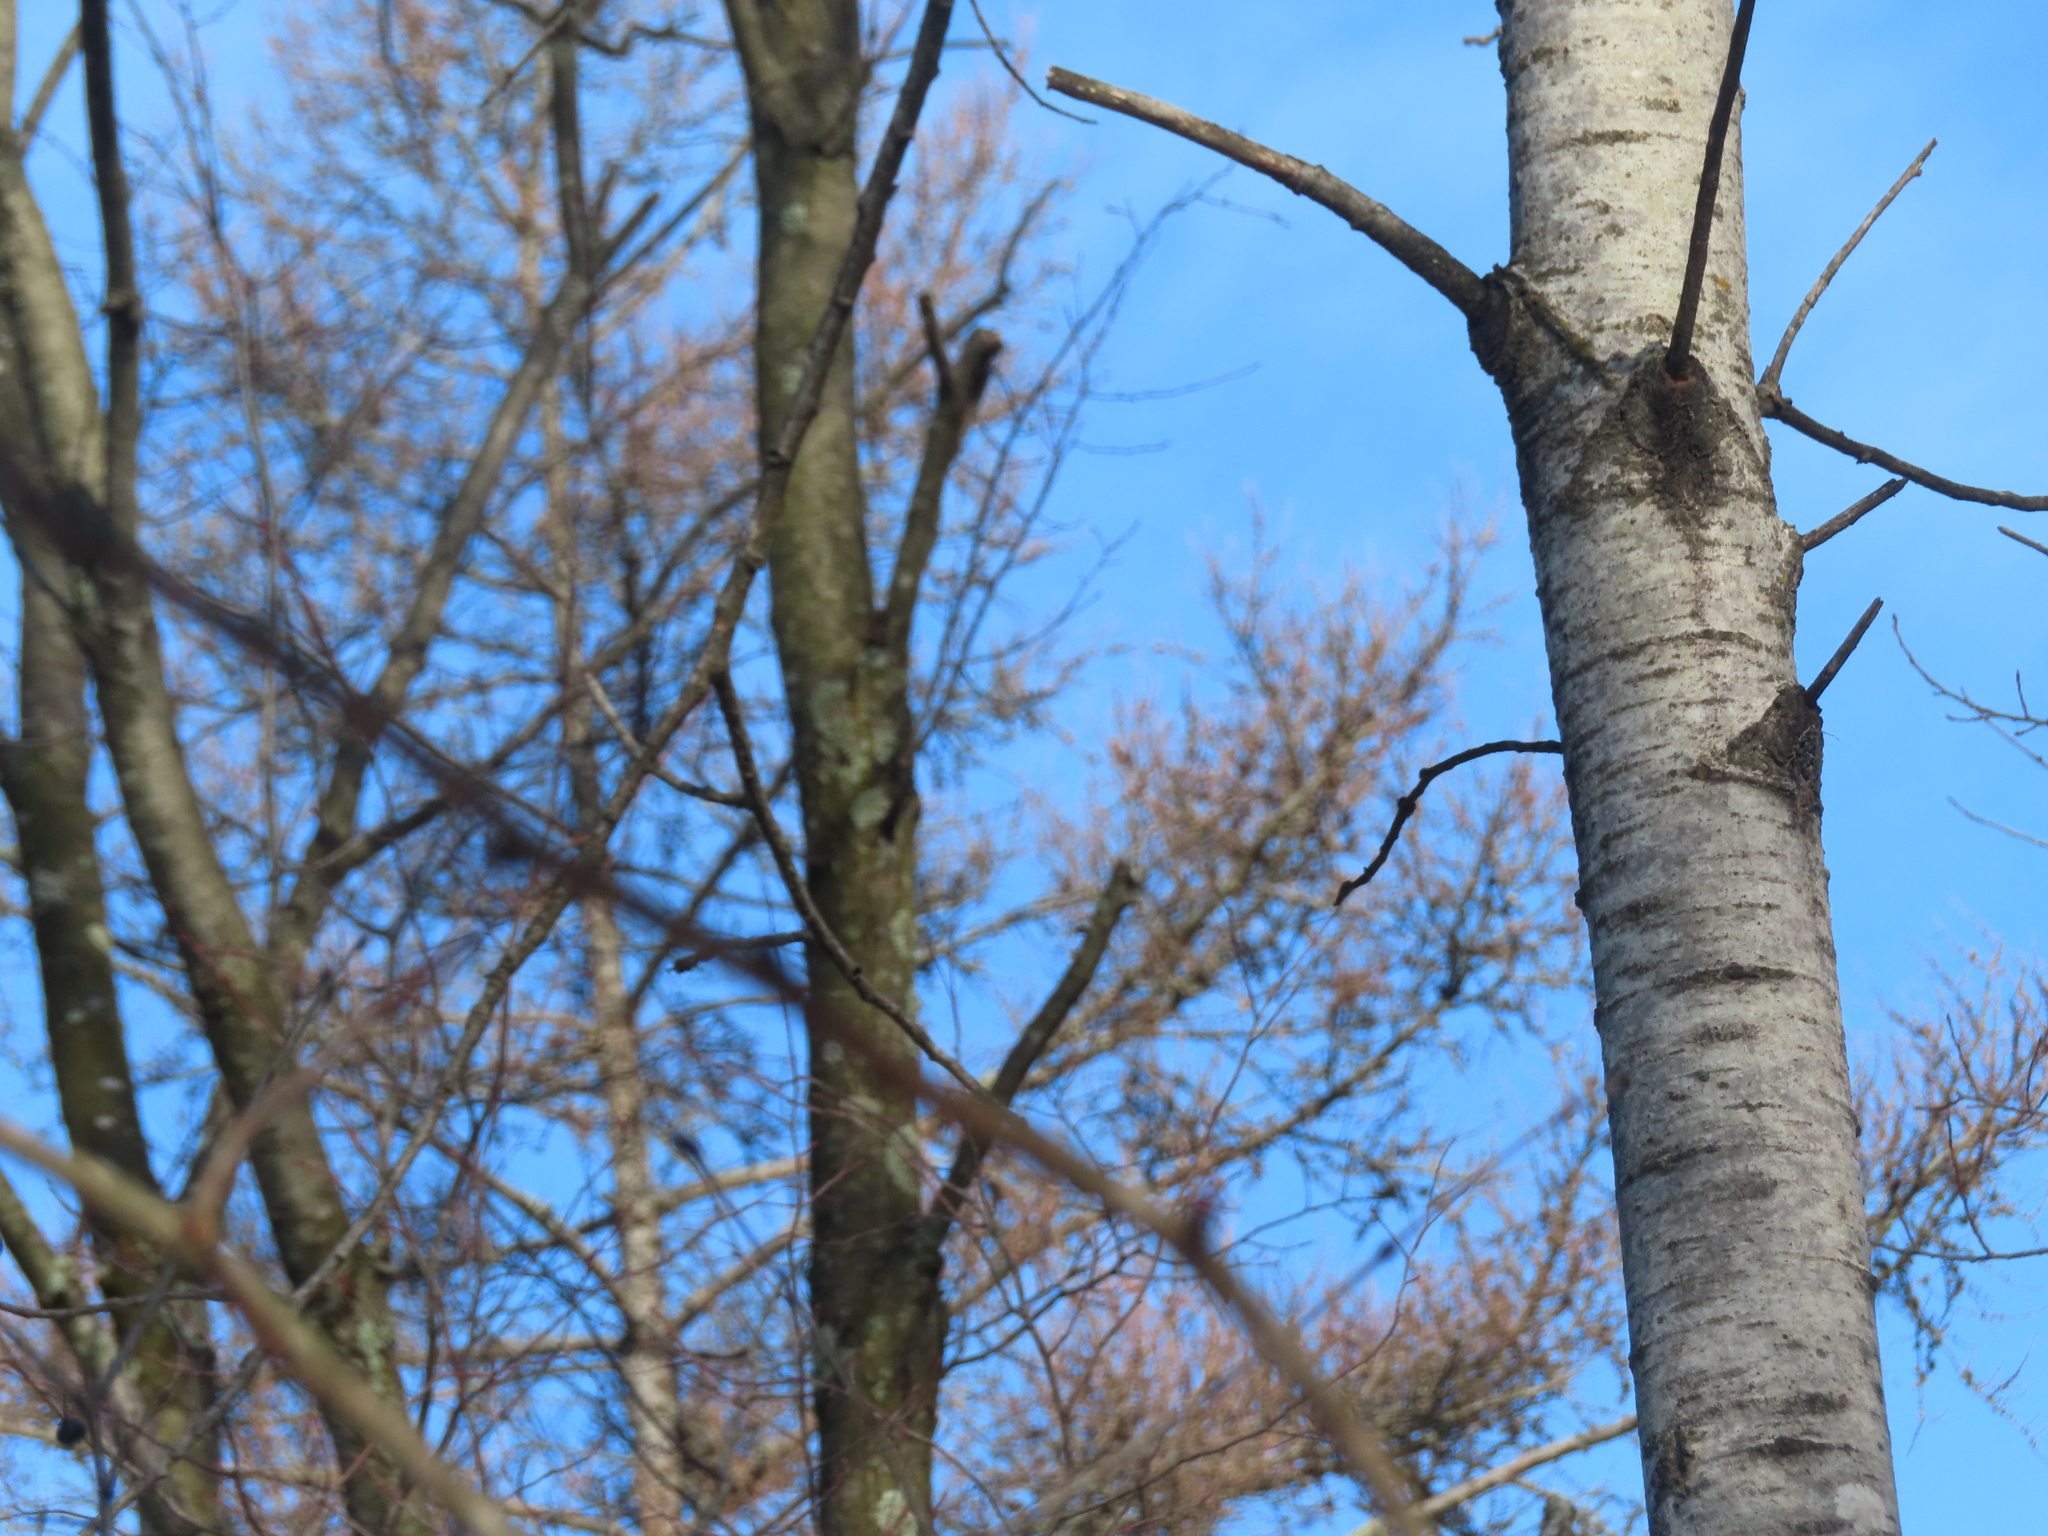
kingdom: Plantae
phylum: Tracheophyta
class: Magnoliopsida
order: Malpighiales
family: Salicaceae
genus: Populus
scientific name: Populus tremuloides
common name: Quaking aspen
